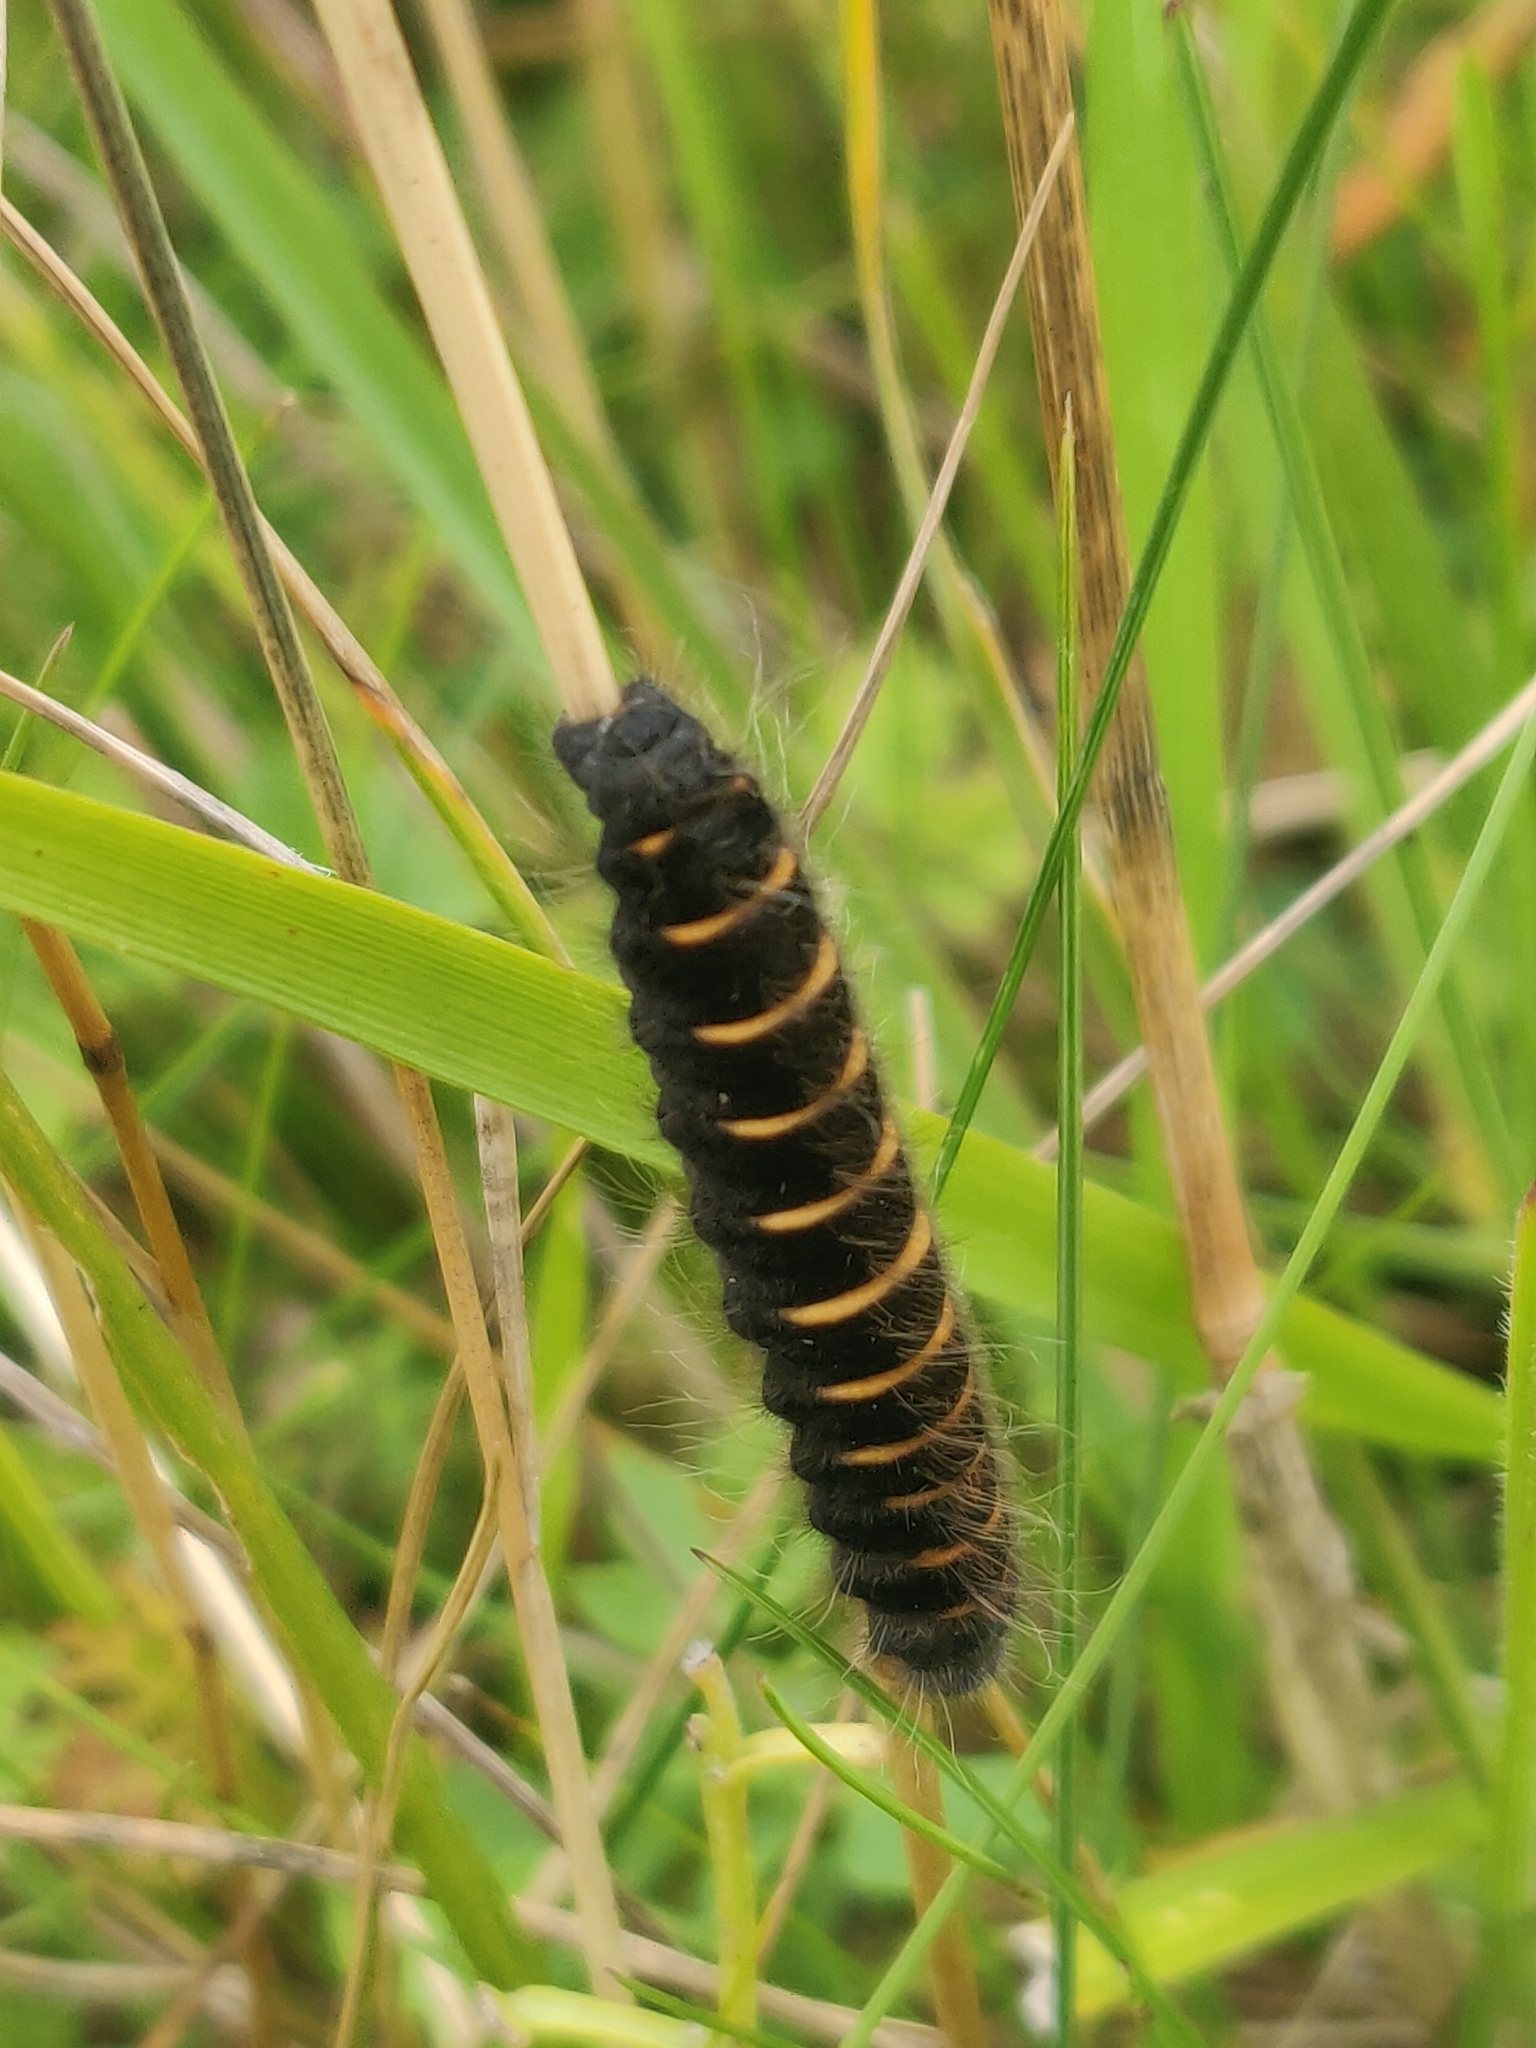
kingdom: Animalia
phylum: Arthropoda
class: Insecta
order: Lepidoptera
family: Lasiocampidae
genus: Macrothylacia
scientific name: Macrothylacia rubi
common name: Fox moth
